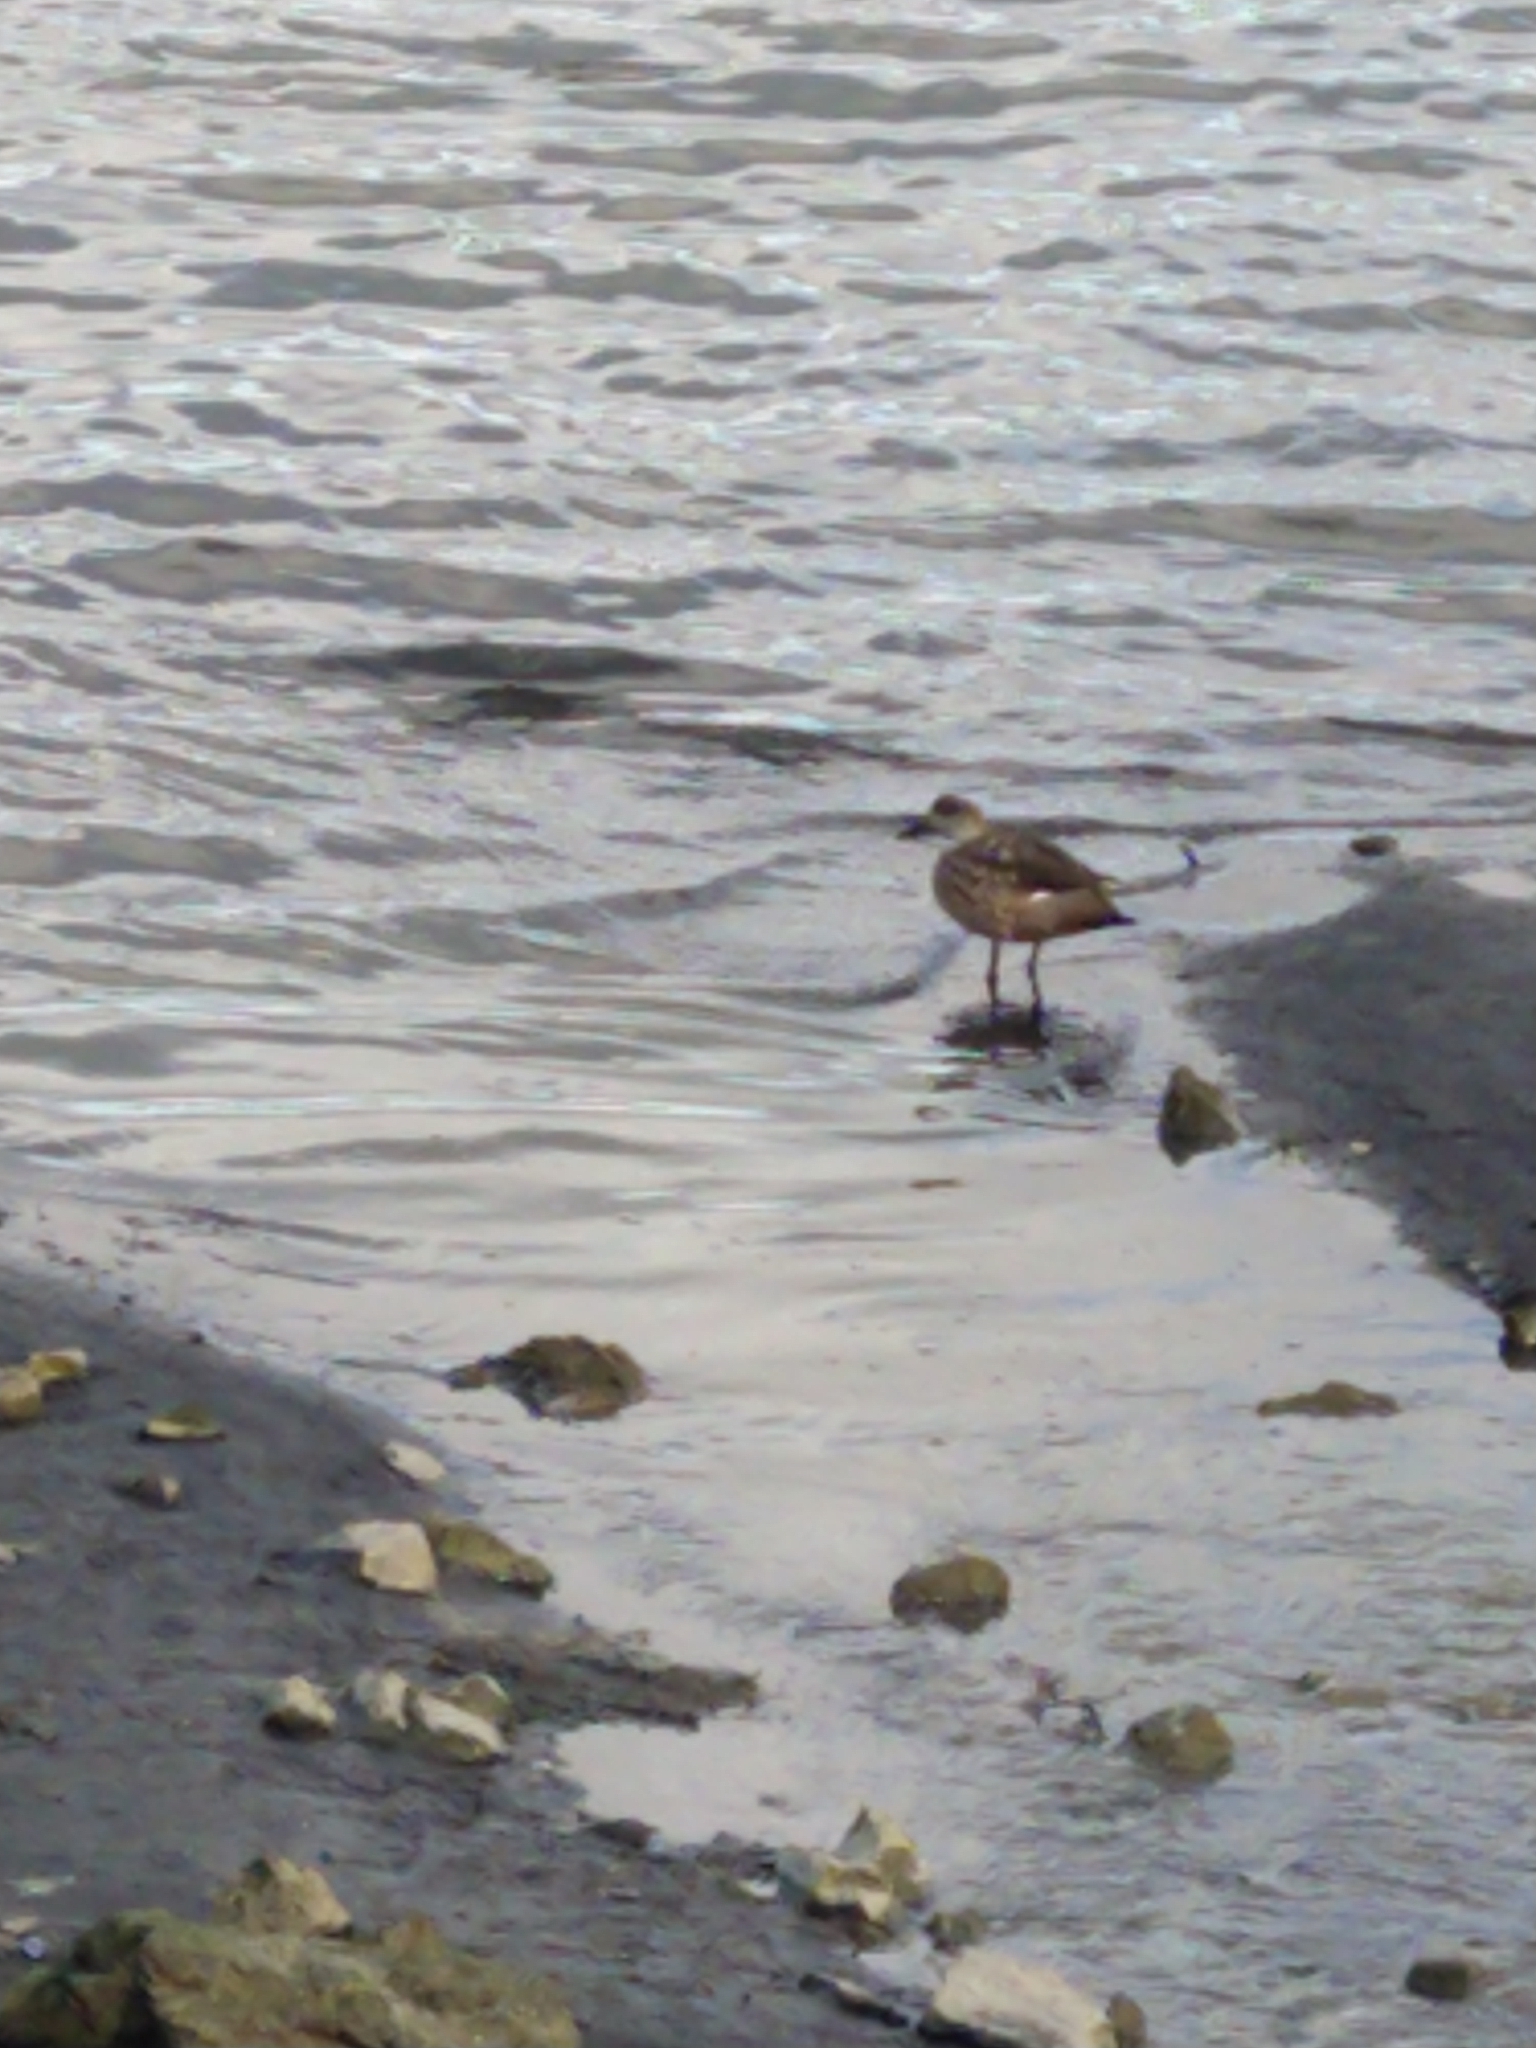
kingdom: Animalia
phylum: Chordata
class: Aves
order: Anseriformes
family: Anatidae
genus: Lophonetta
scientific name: Lophonetta specularioides
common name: Crested duck
